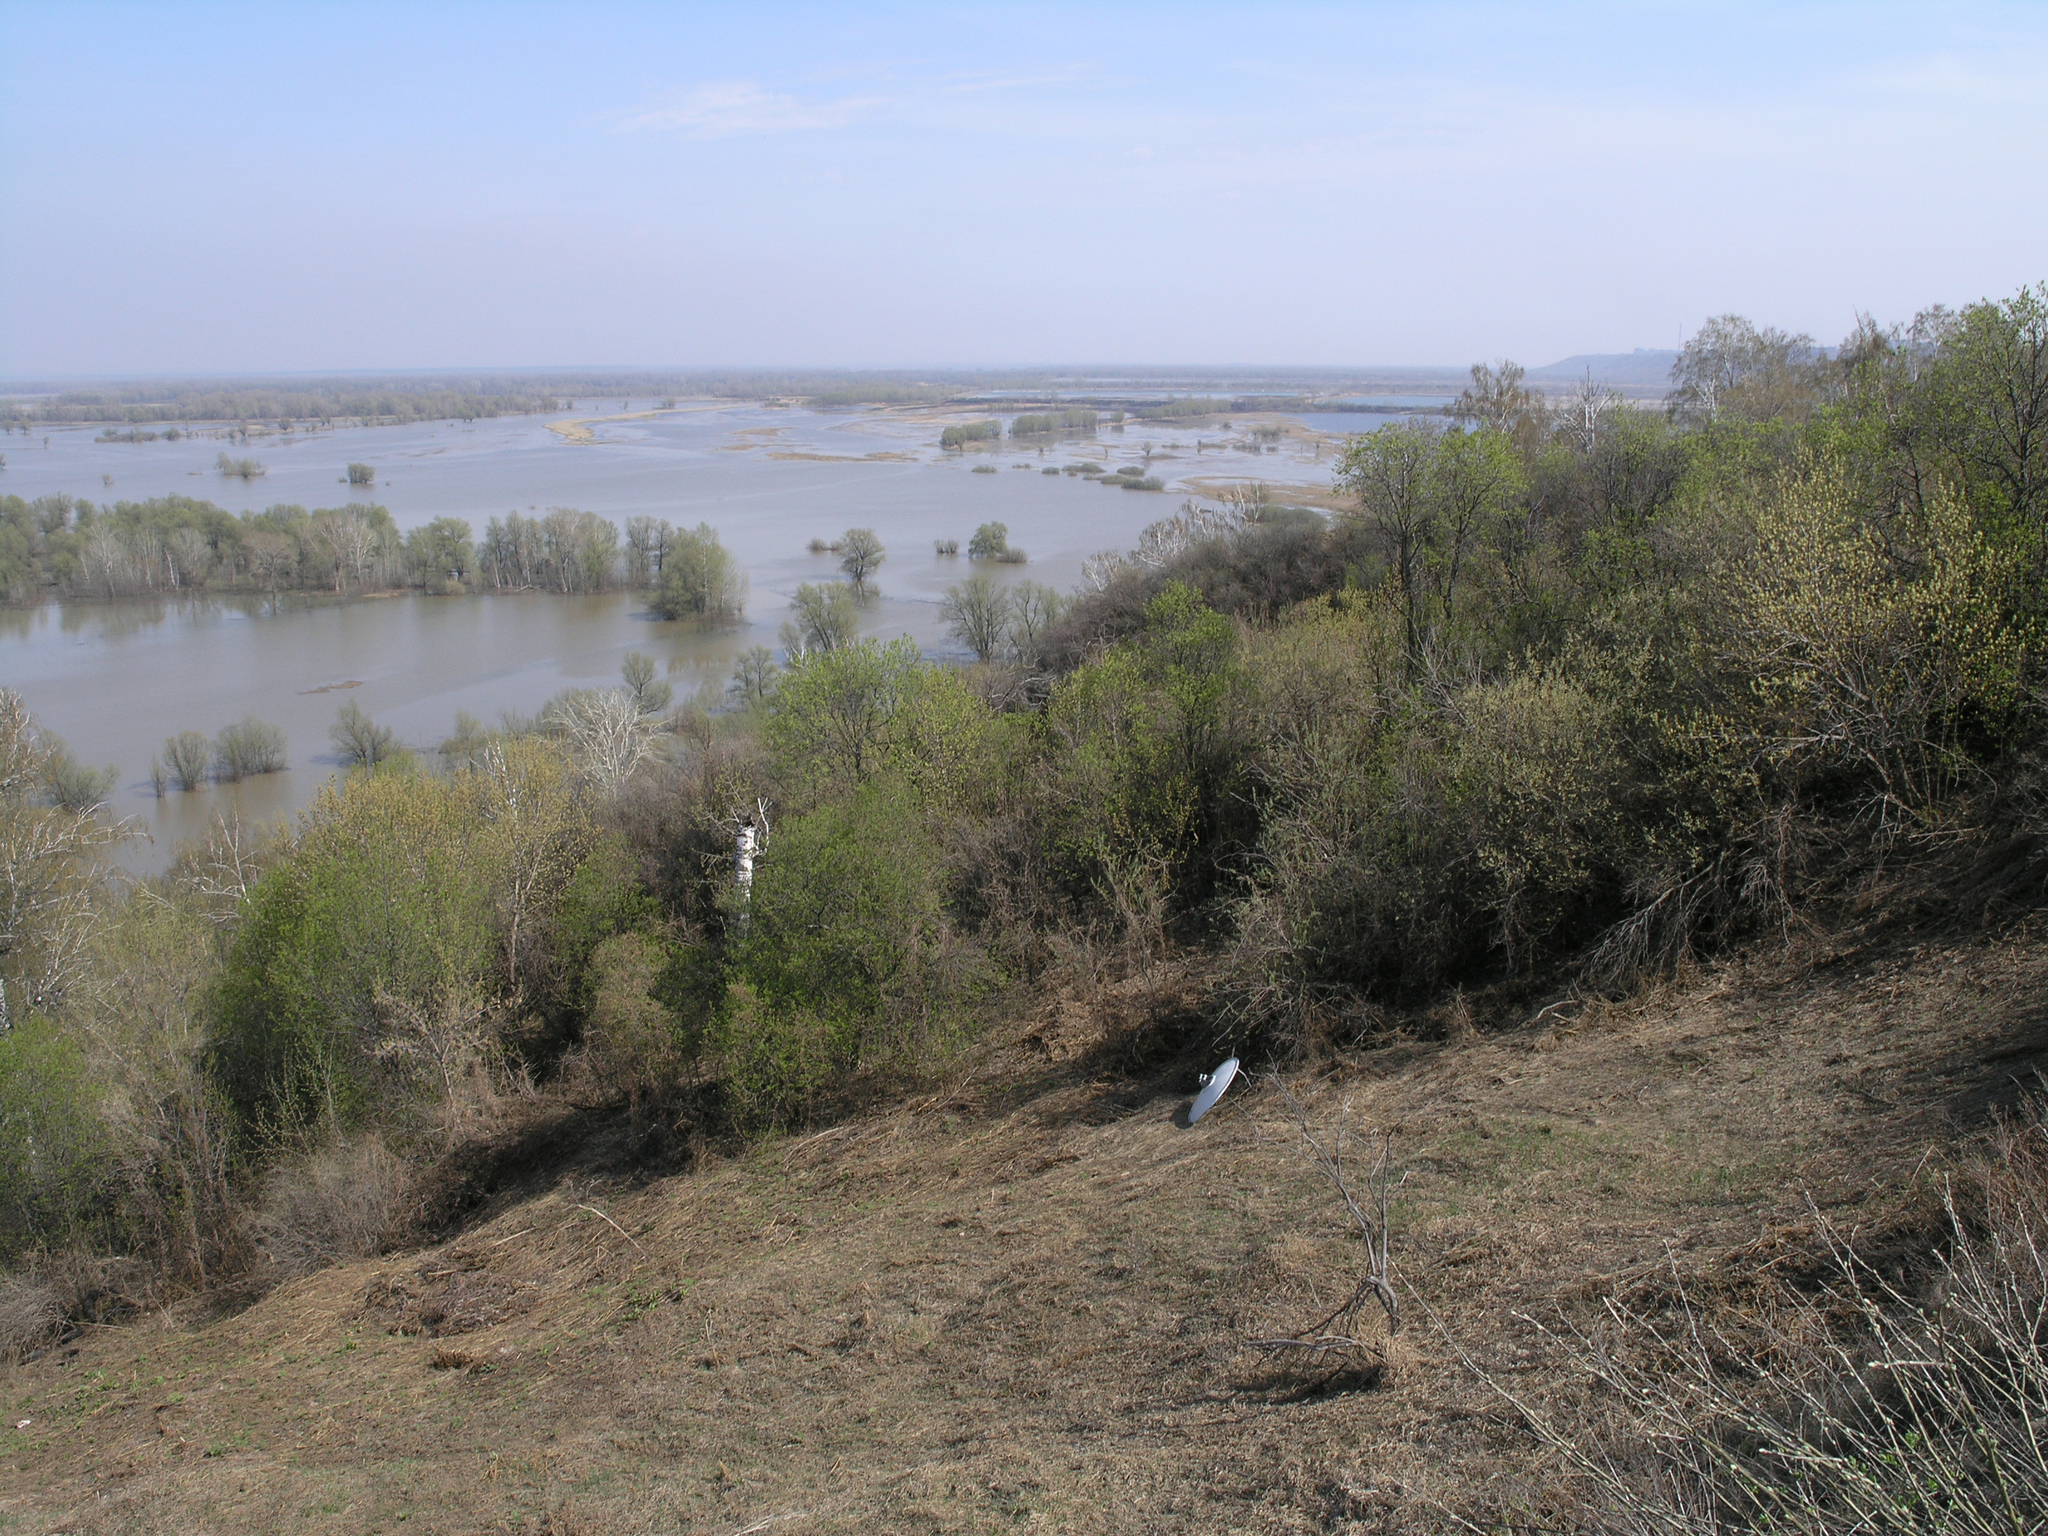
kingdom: Plantae
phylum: Tracheophyta
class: Magnoliopsida
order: Rosales
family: Rosaceae
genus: Prunus
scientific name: Prunus padus
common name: Bird cherry
